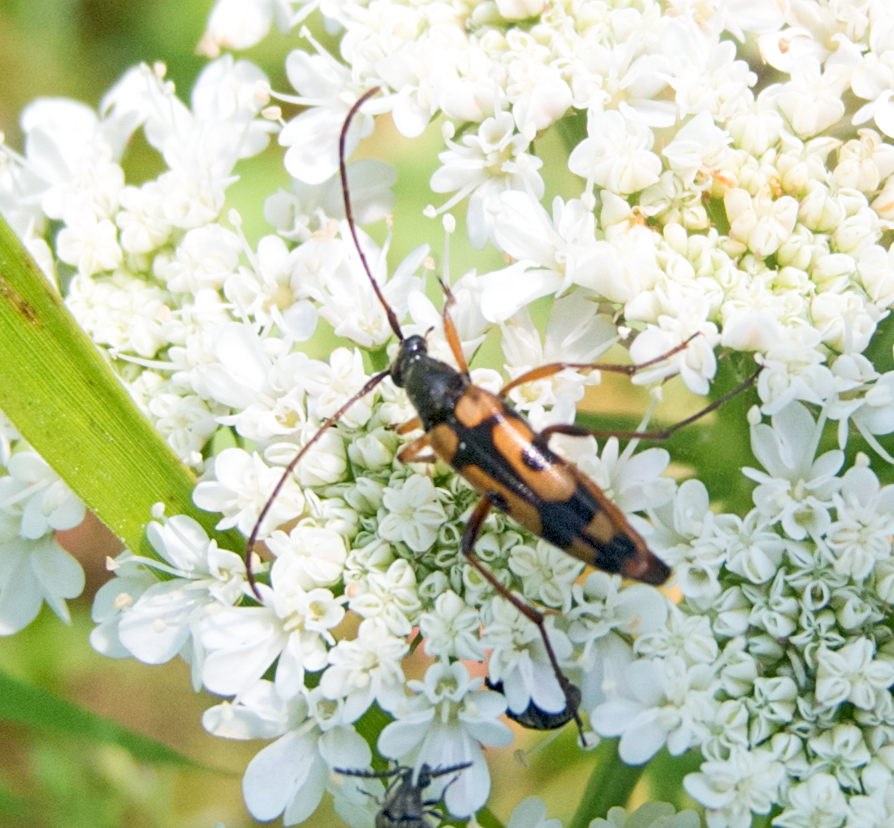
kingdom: Animalia
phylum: Arthropoda
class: Insecta
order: Coleoptera
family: Cerambycidae
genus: Stenurella
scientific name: Stenurella septempunctata
